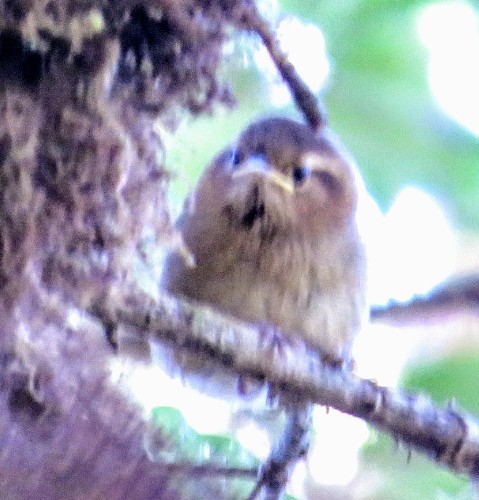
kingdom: Animalia
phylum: Chordata
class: Aves
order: Passeriformes
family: Troglodytidae
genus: Troglodytes
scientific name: Troglodytes ochraceus
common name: Ochraceous wren
